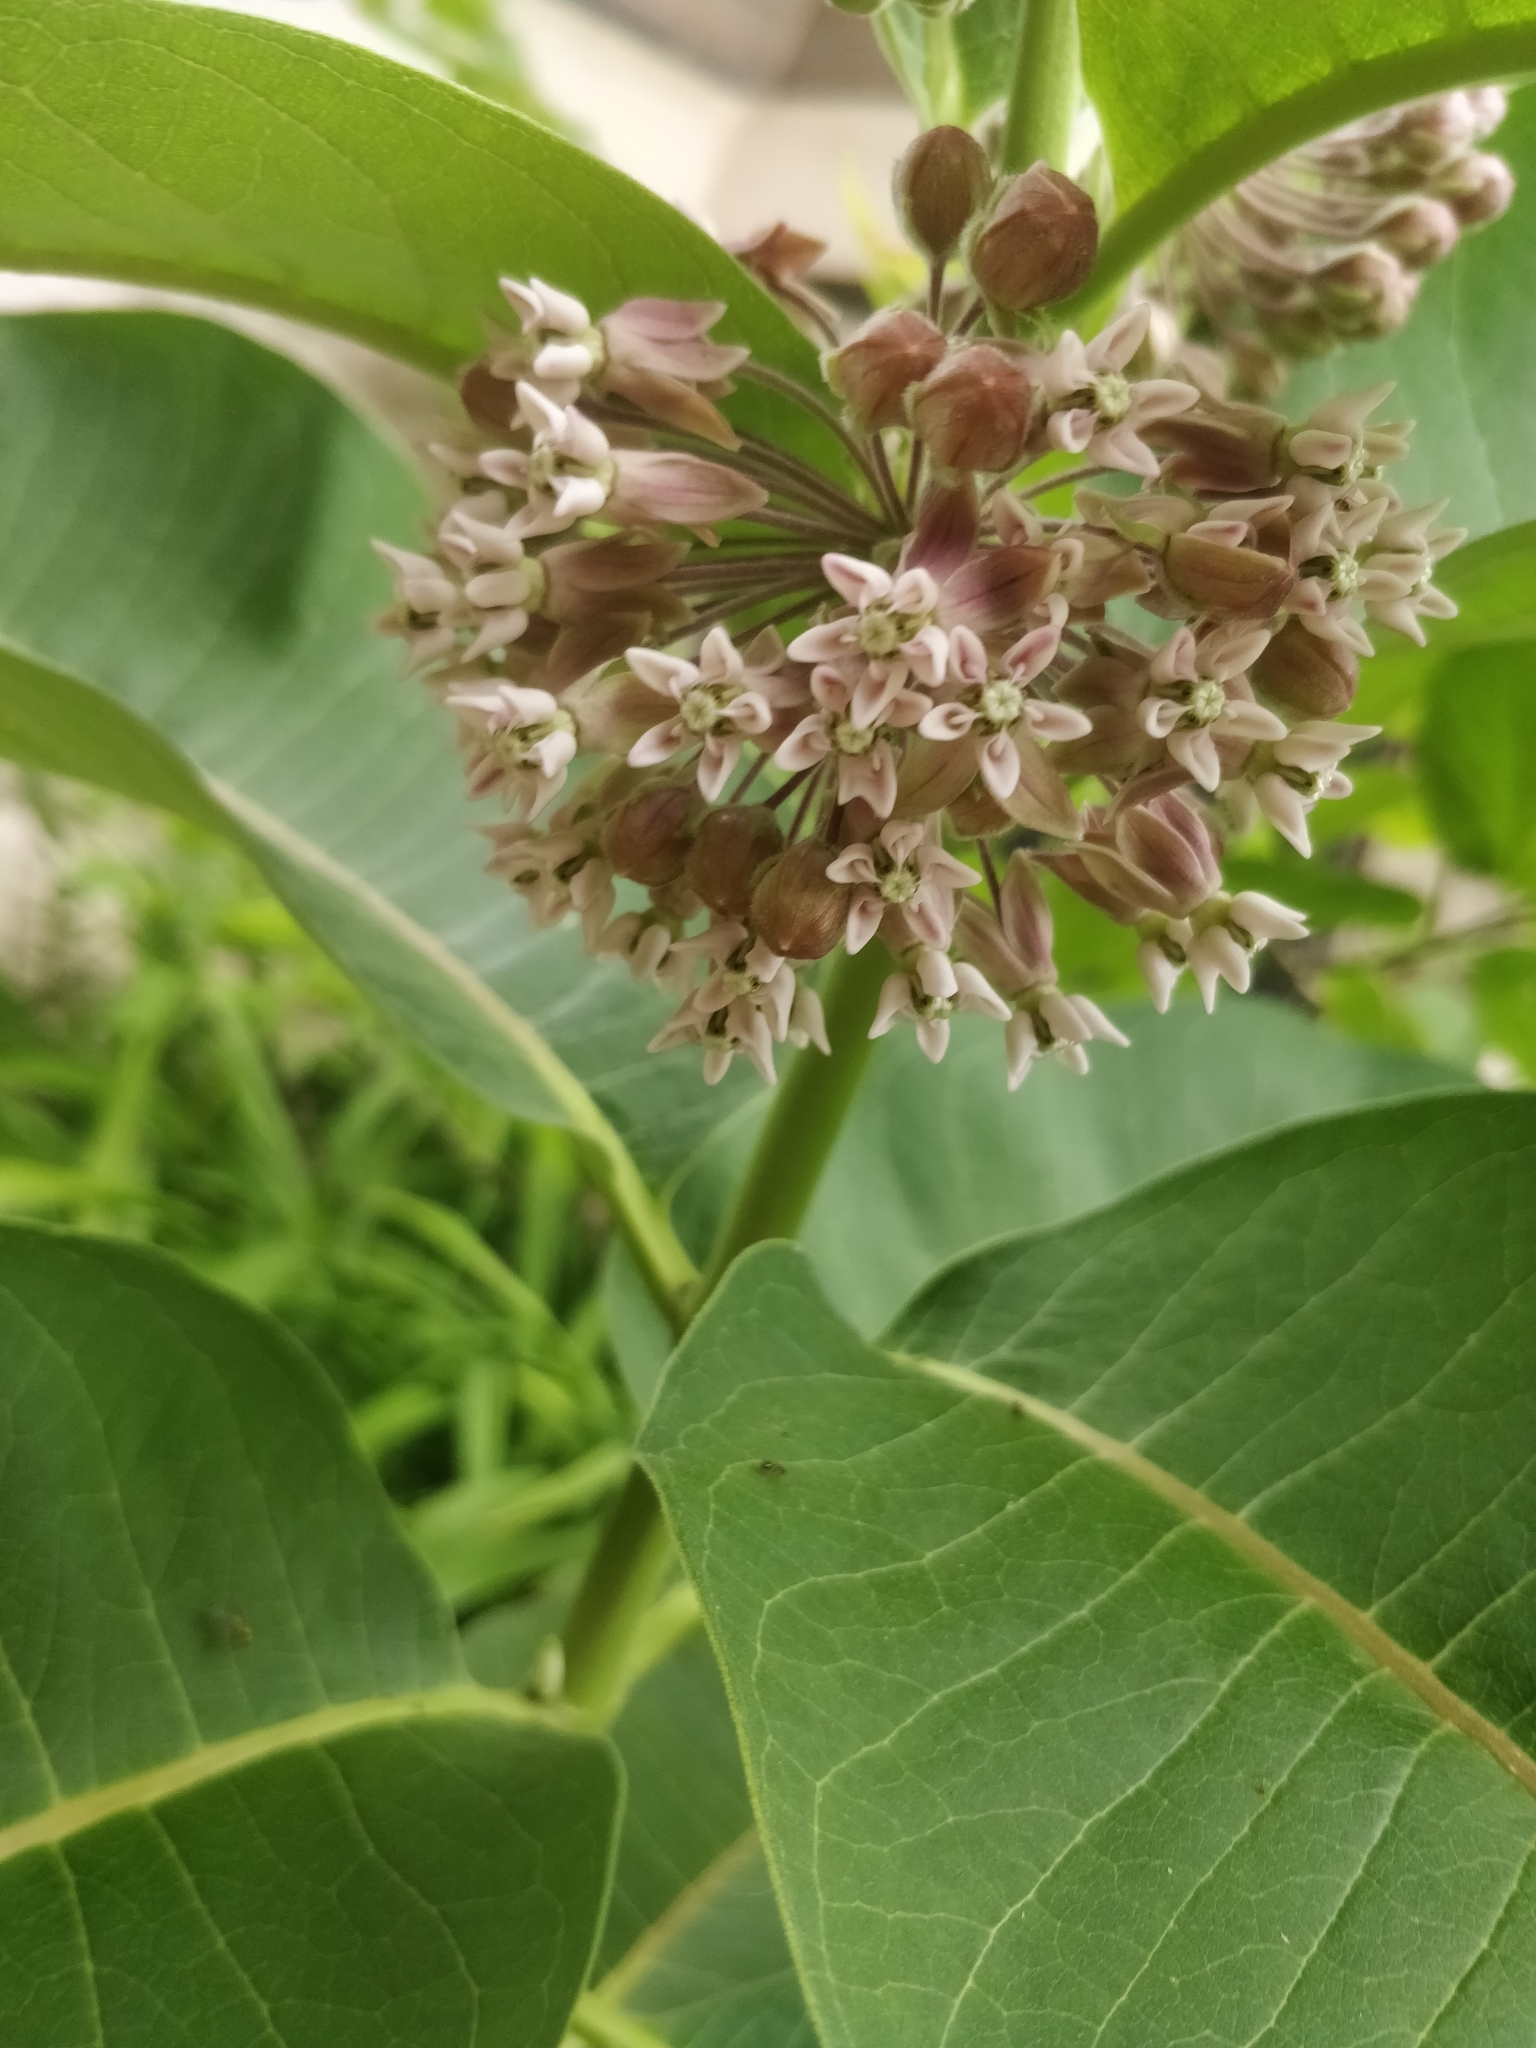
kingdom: Plantae
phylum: Tracheophyta
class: Magnoliopsida
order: Gentianales
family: Apocynaceae
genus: Asclepias
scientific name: Asclepias syriaca
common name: Common milkweed
